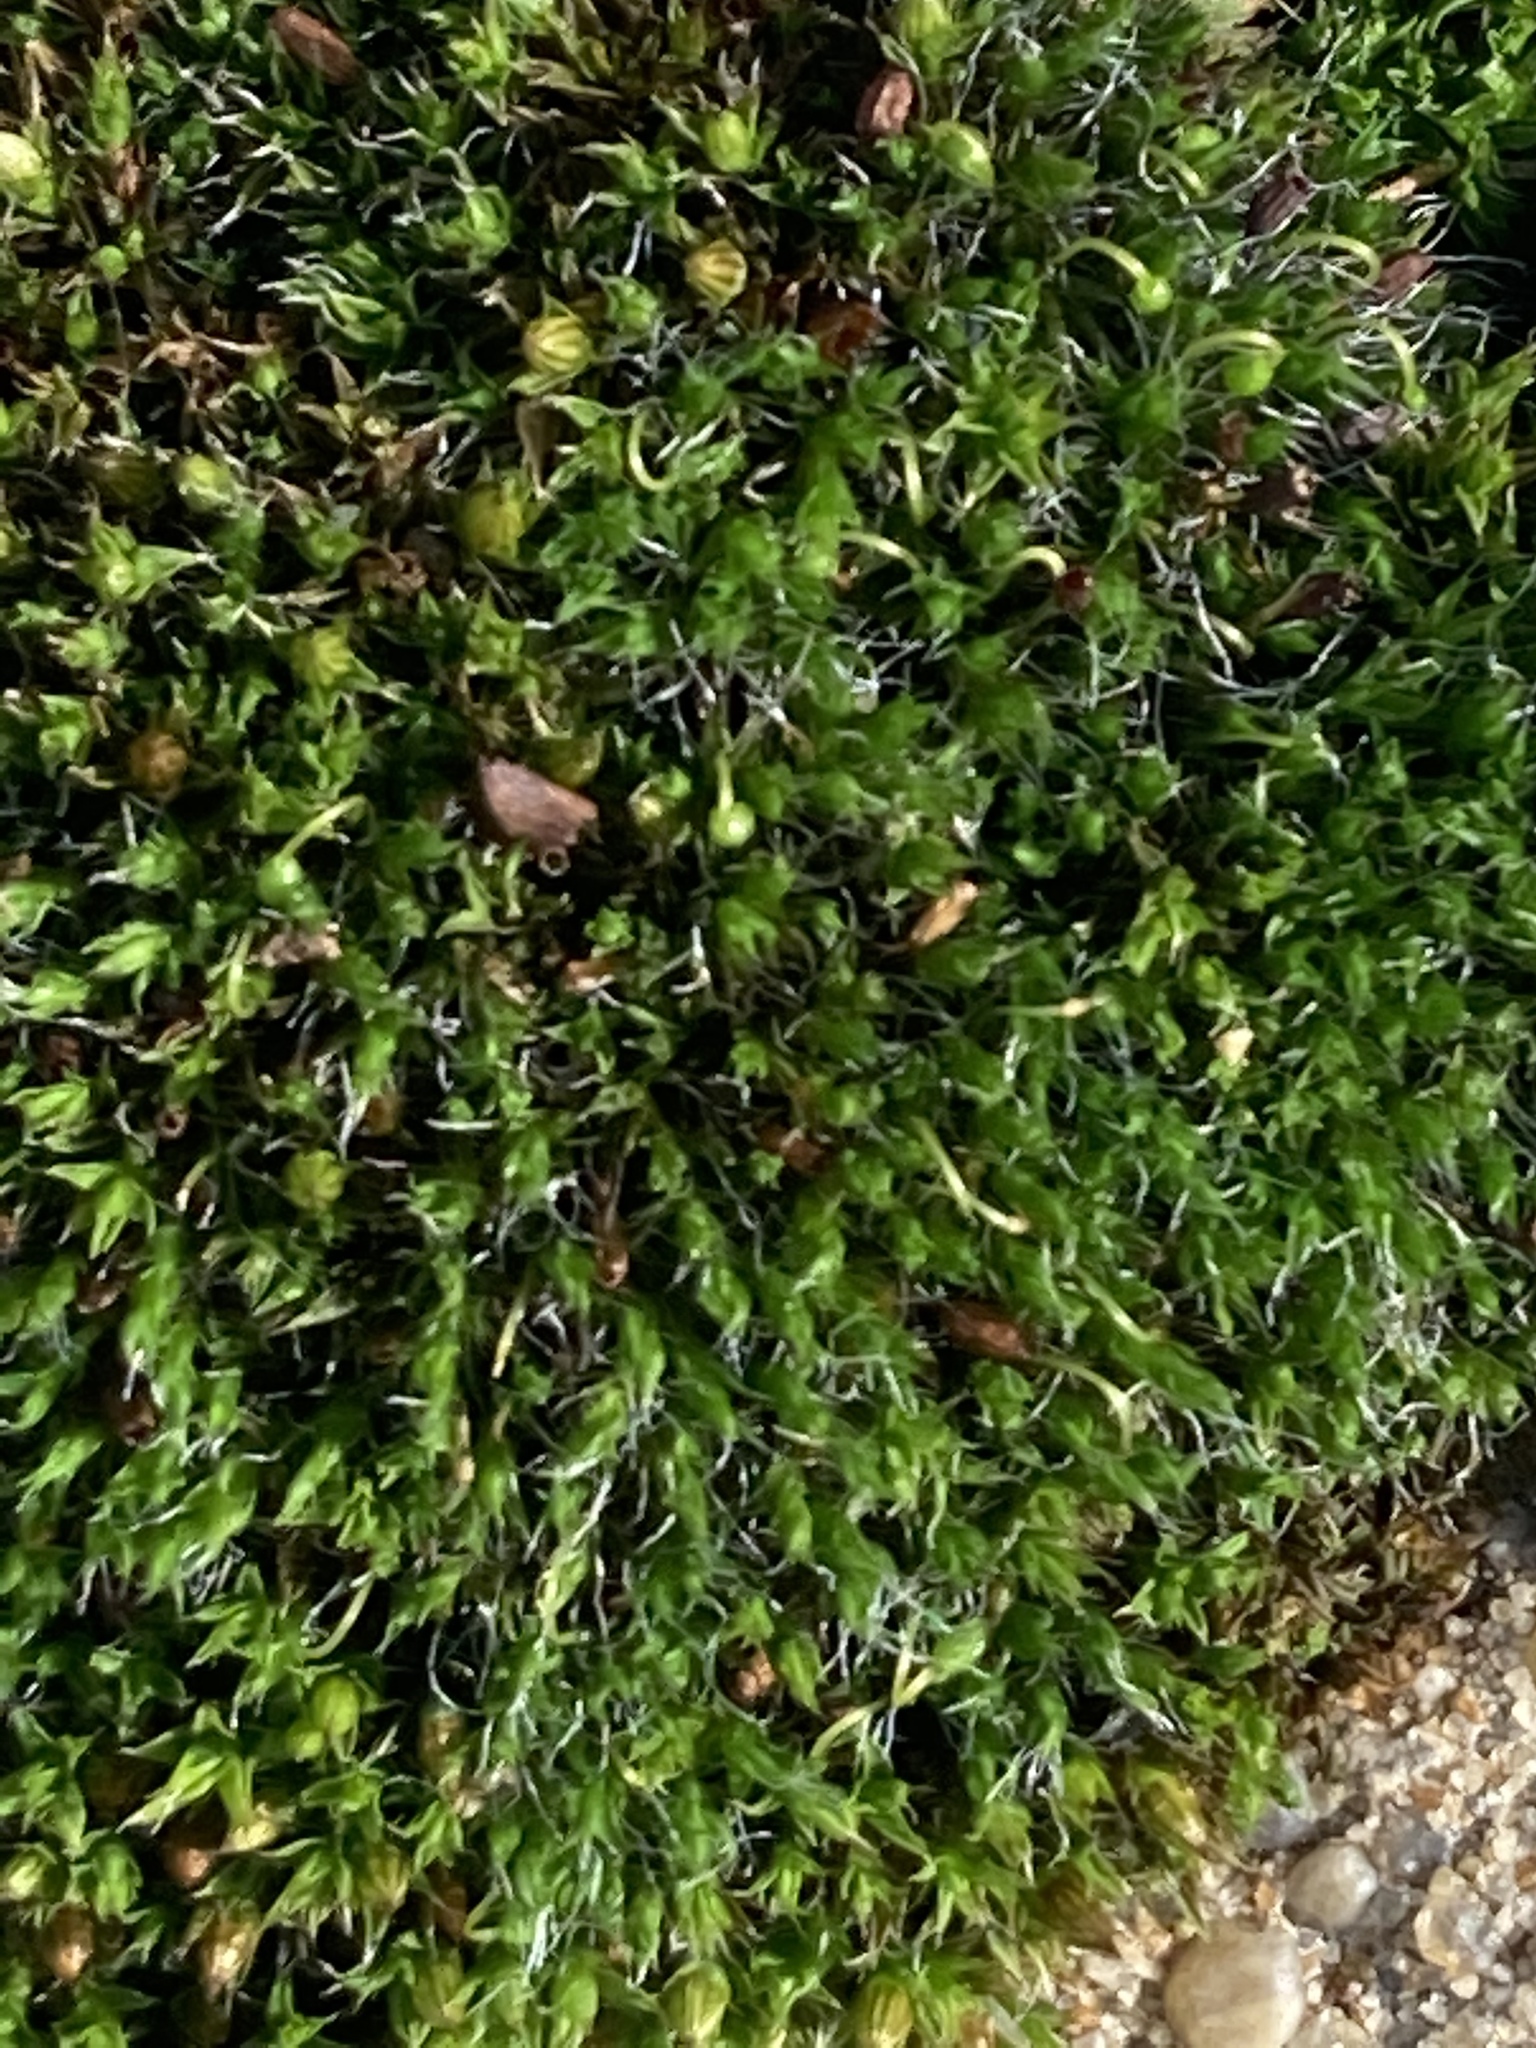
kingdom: Plantae
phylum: Bryophyta
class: Bryopsida
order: Orthotrichales
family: Orthotrichaceae
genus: Orthotrichum
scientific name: Orthotrichum diaphanum
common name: White-tipped bristle-moss
